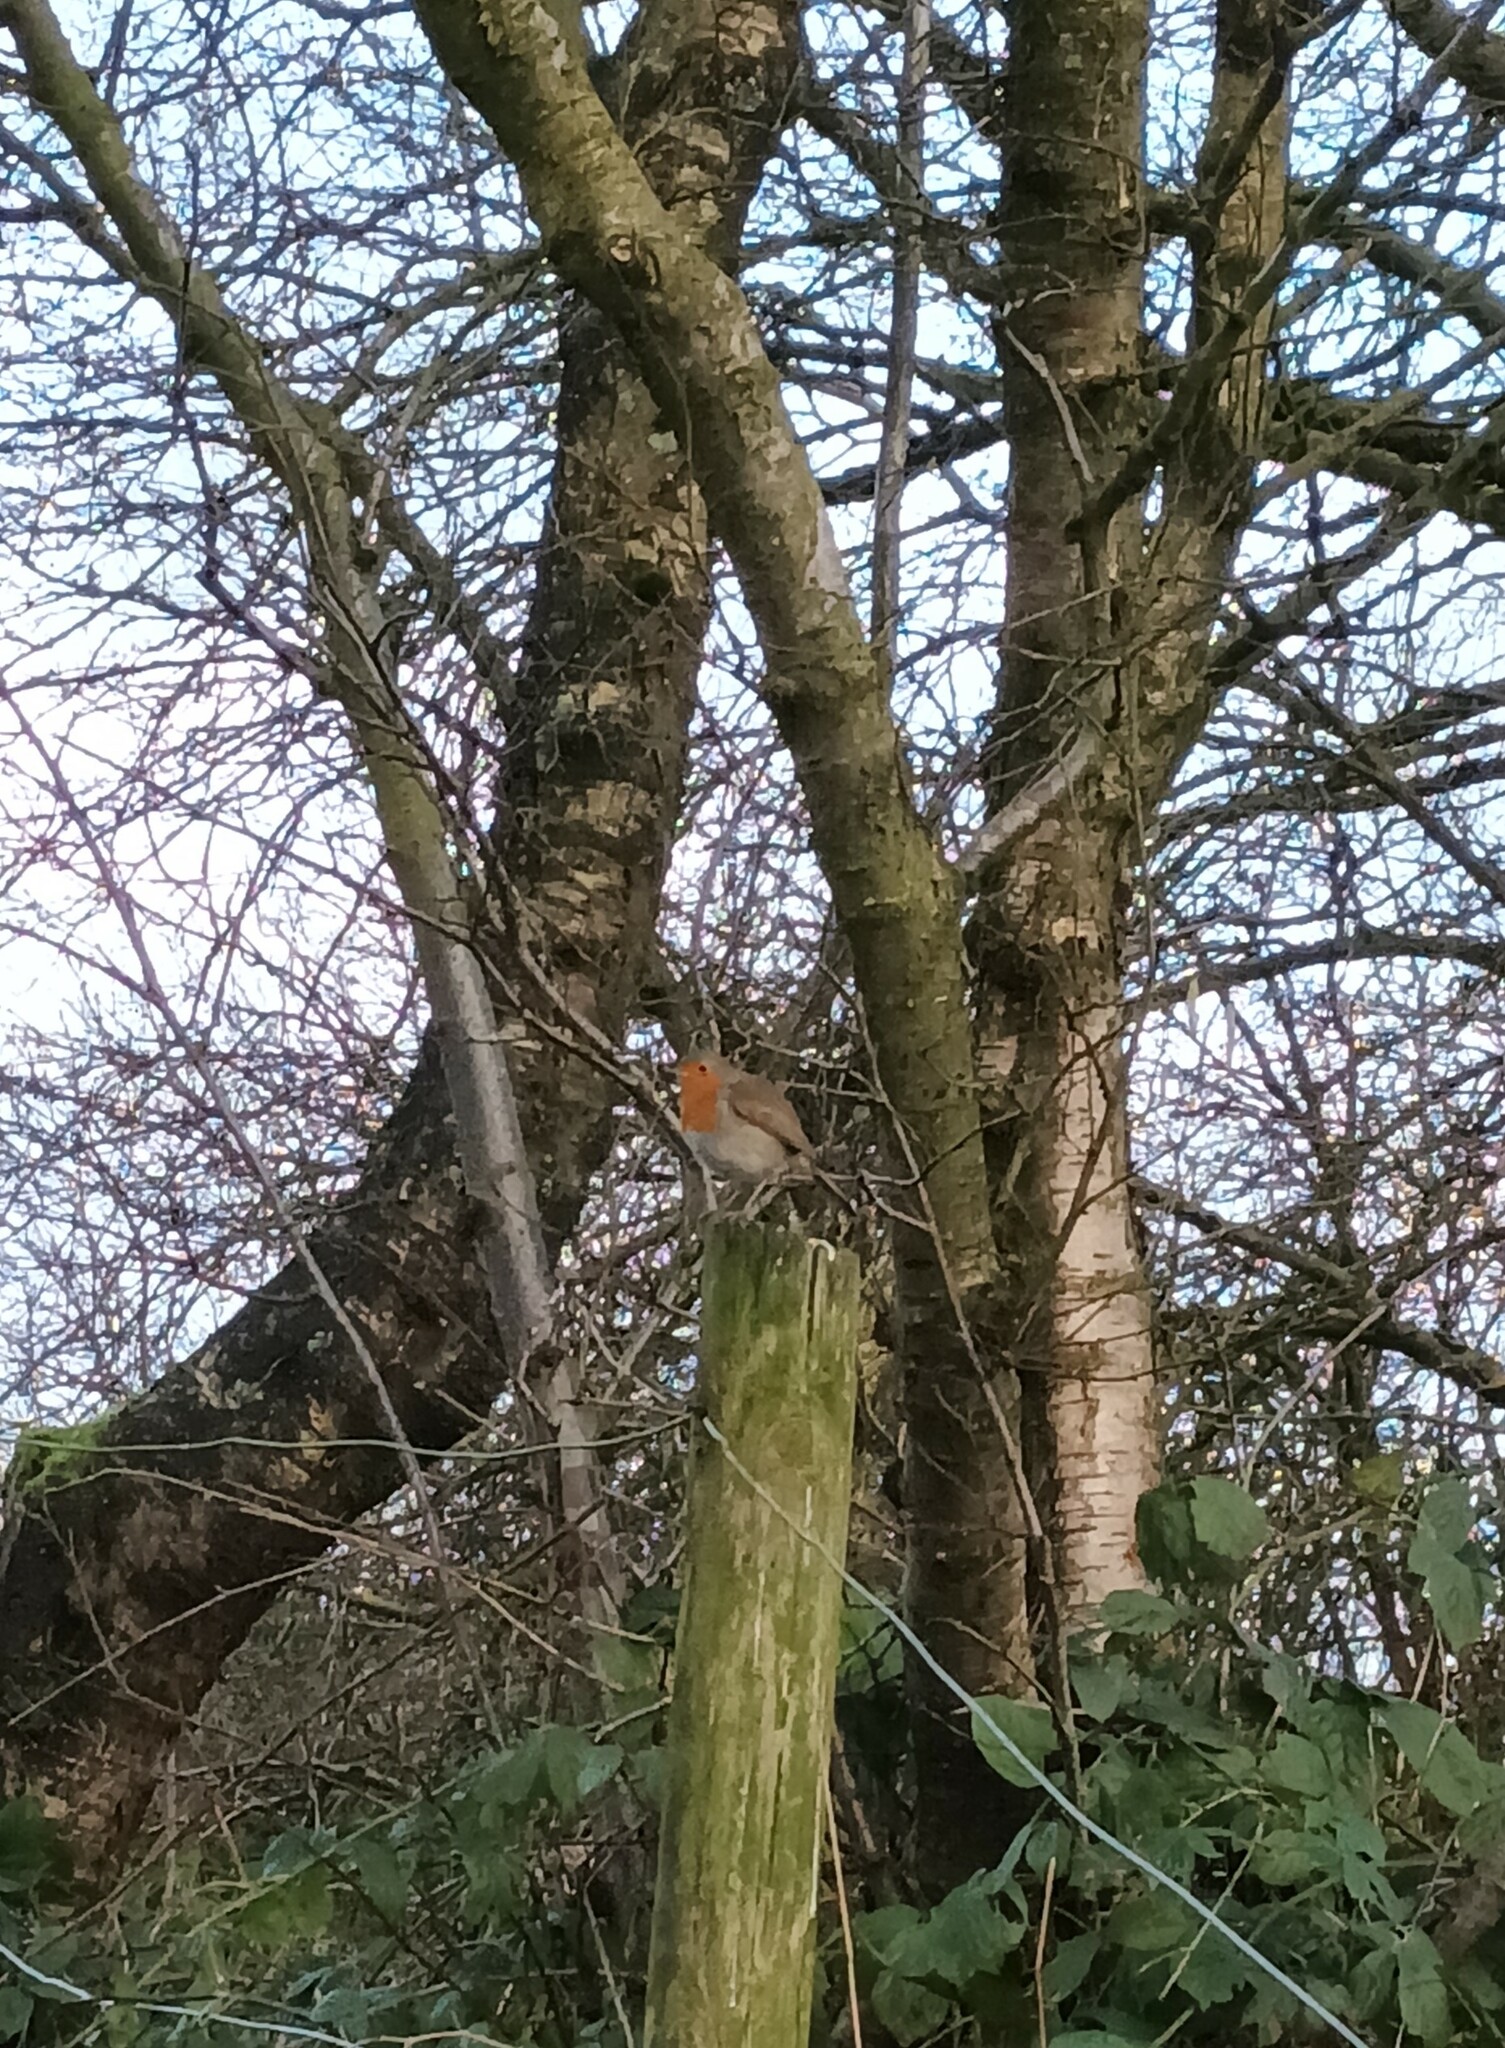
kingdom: Animalia
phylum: Chordata
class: Aves
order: Passeriformes
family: Muscicapidae
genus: Erithacus
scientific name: Erithacus rubecula
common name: European robin
